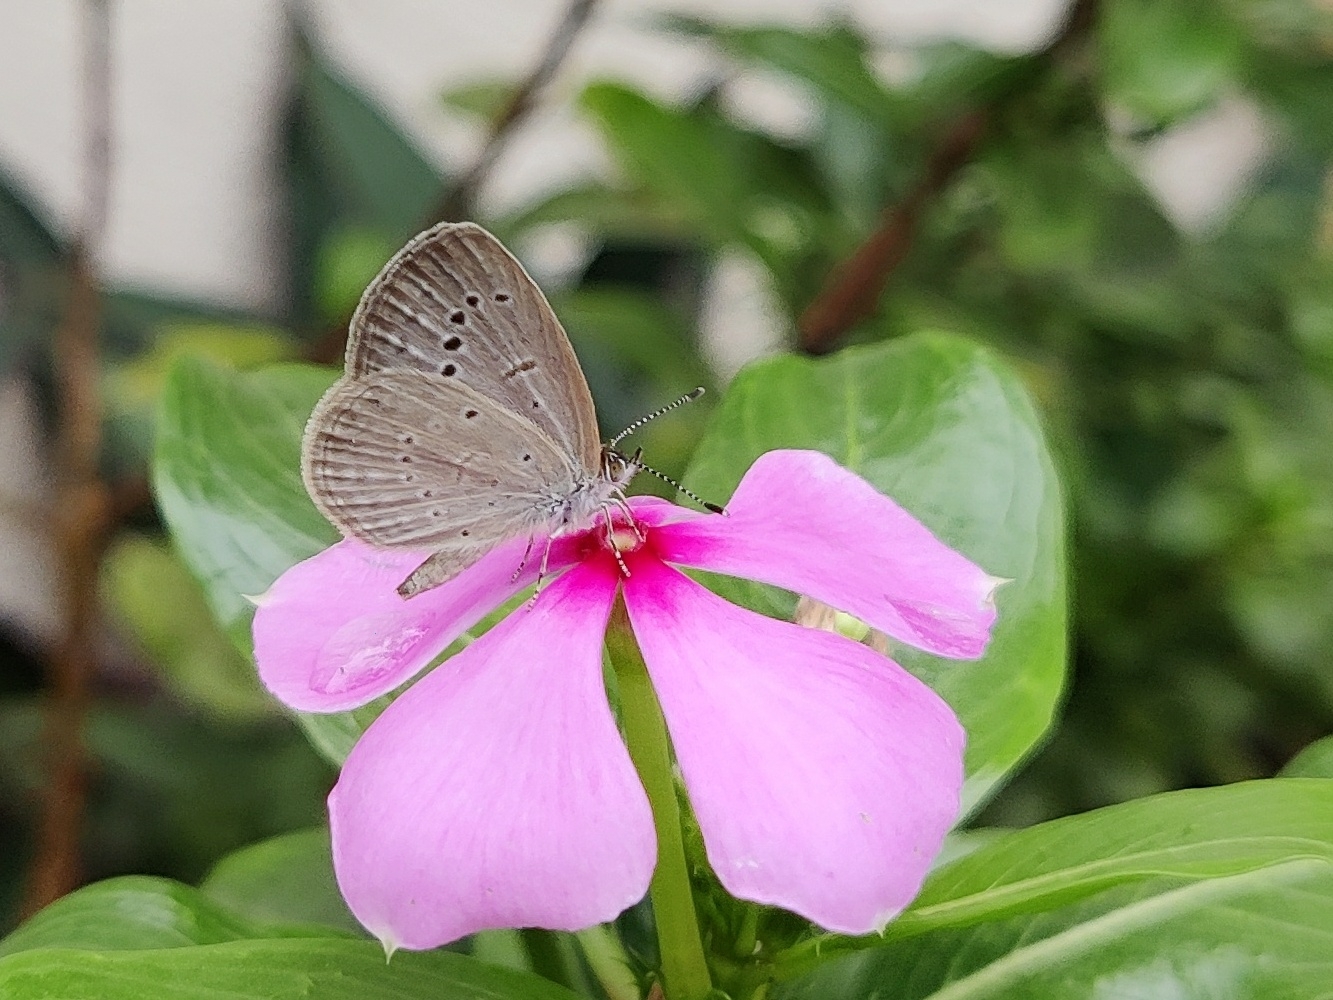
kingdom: Animalia
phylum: Arthropoda
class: Insecta
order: Lepidoptera
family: Lycaenidae
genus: Pseudozizeeria
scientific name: Pseudozizeeria maha
